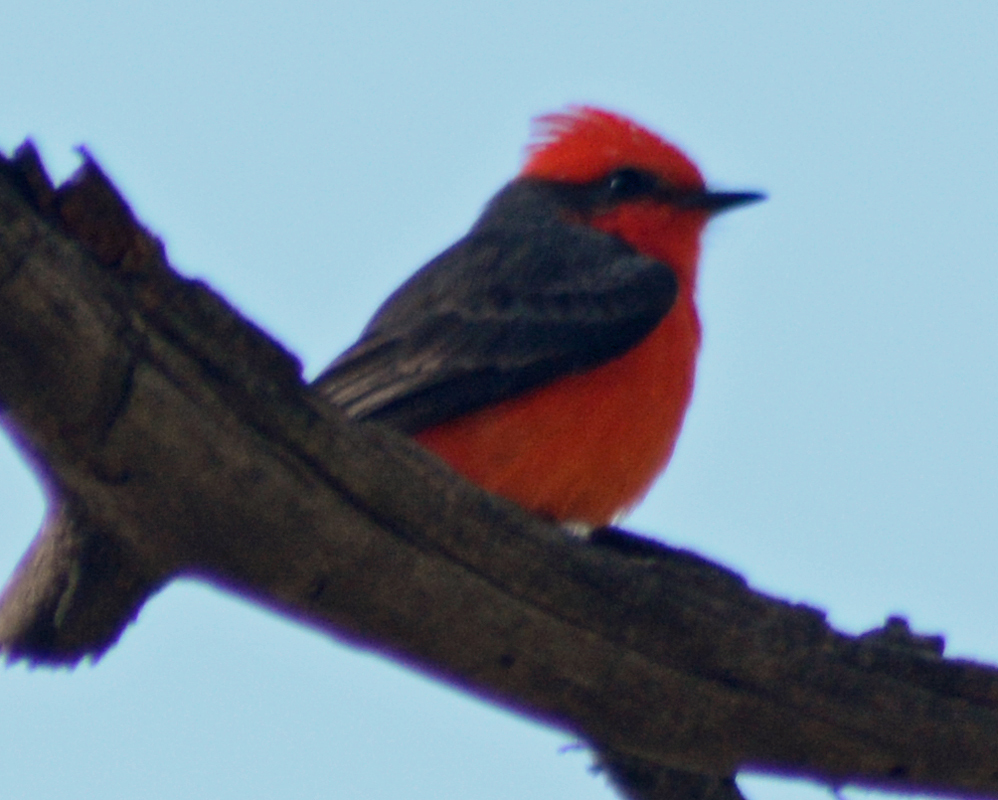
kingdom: Animalia
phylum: Chordata
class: Aves
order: Passeriformes
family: Tyrannidae
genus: Pyrocephalus
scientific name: Pyrocephalus rubinus
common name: Vermilion flycatcher
